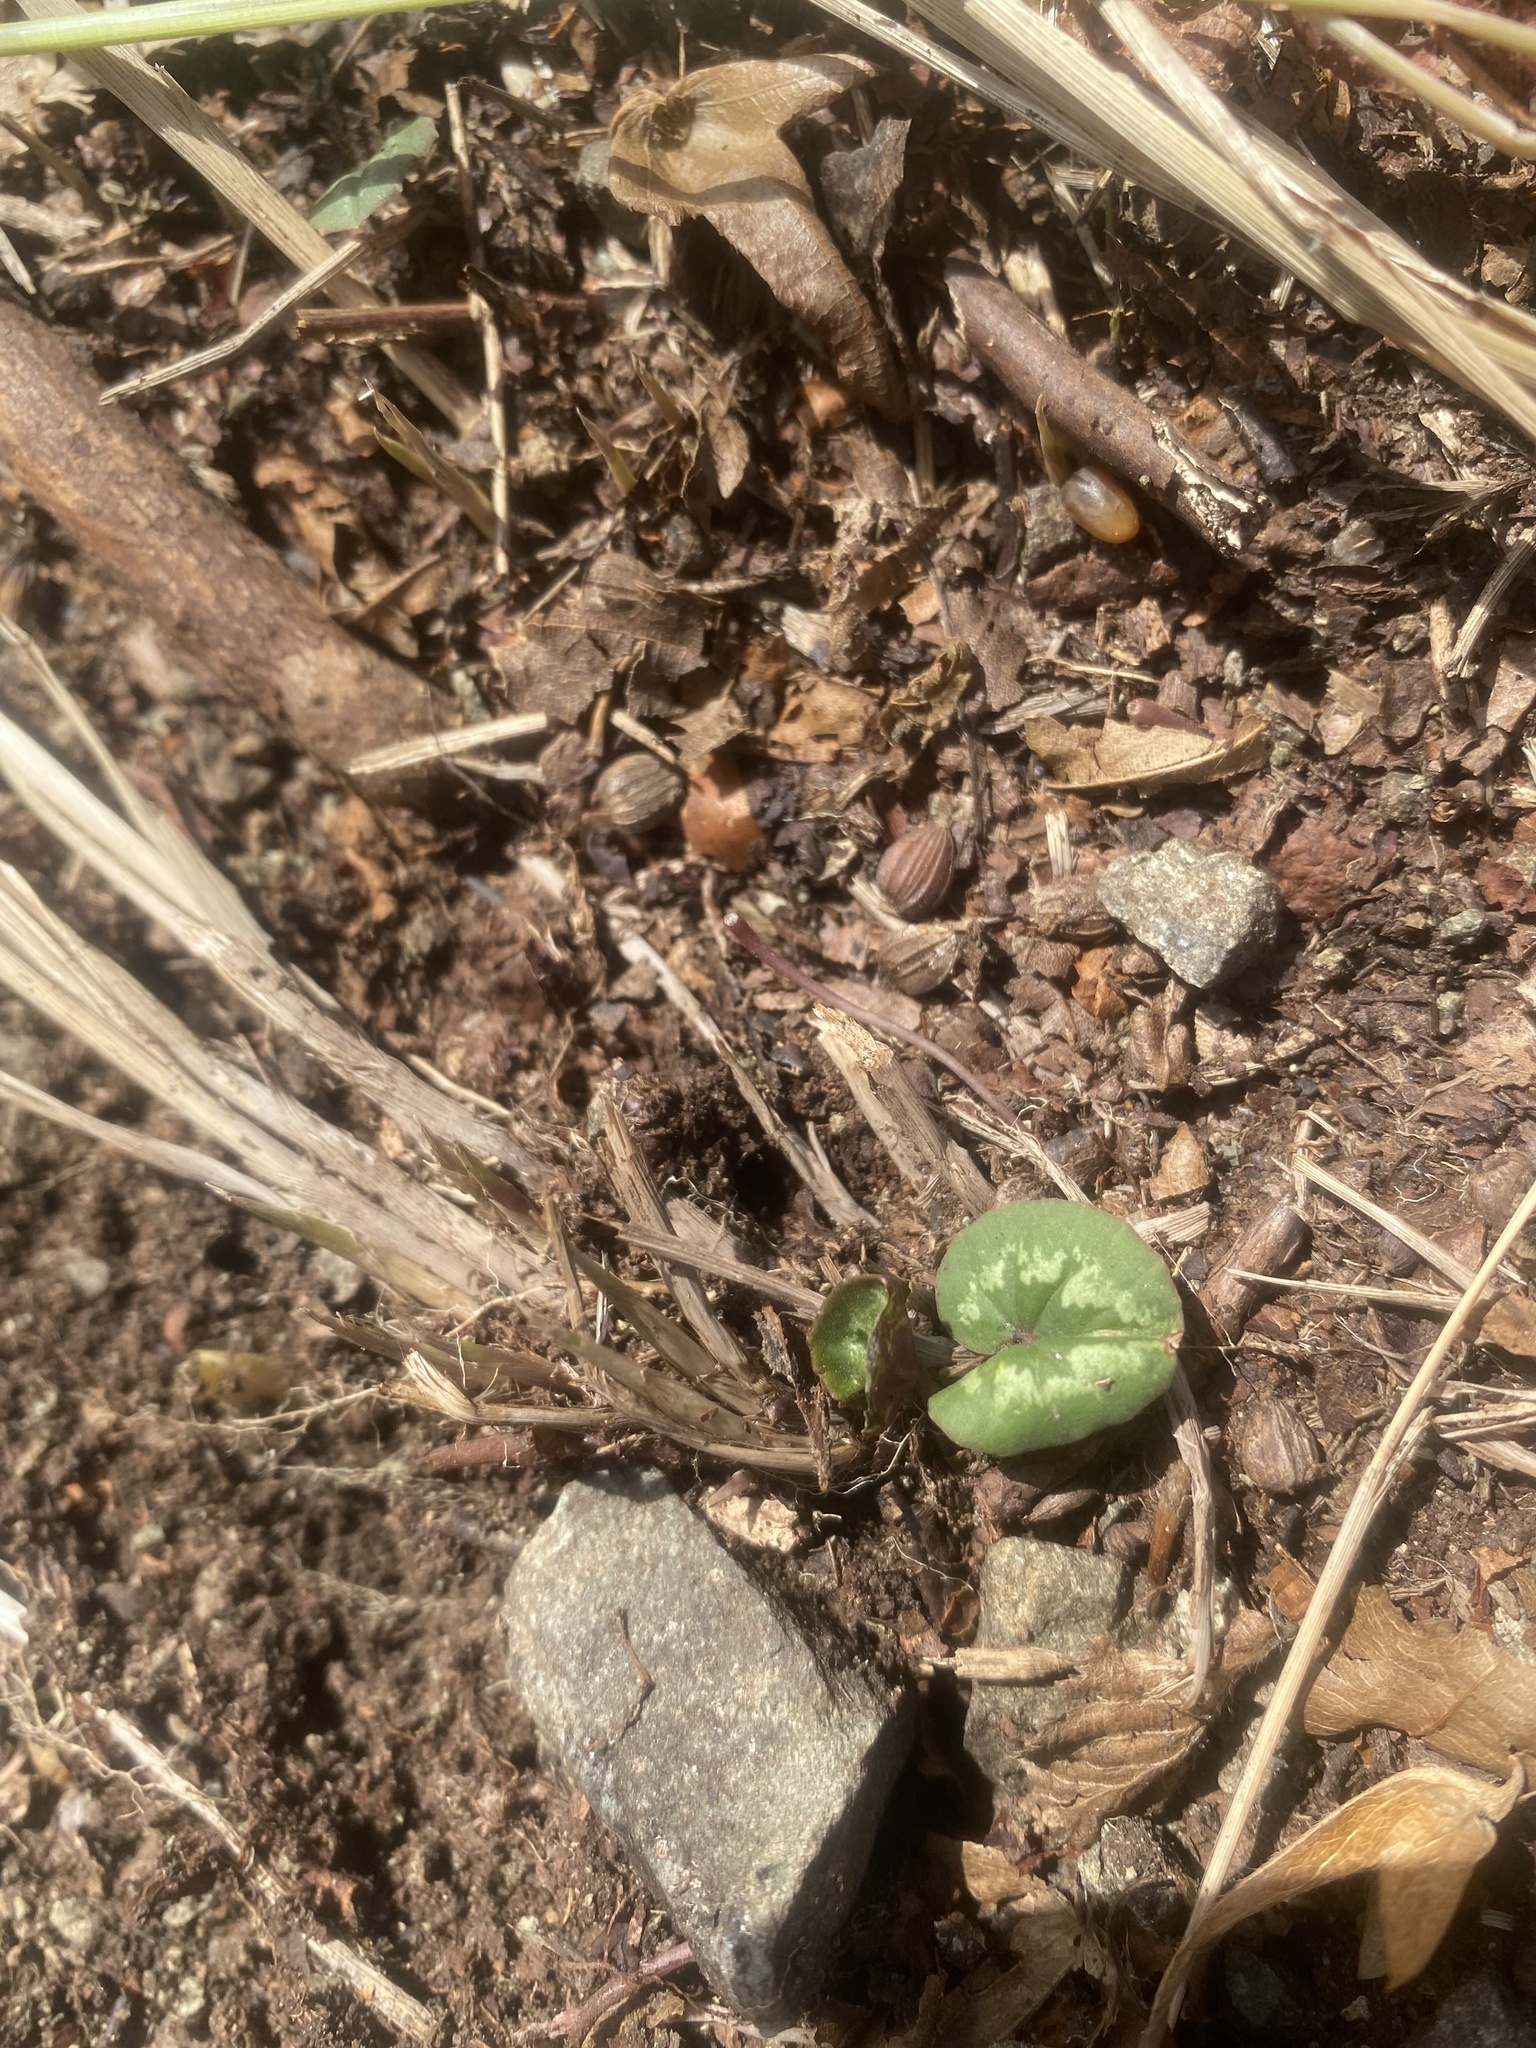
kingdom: Plantae
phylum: Tracheophyta
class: Magnoliopsida
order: Ericales
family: Primulaceae
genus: Cyclamen
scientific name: Cyclamen coum
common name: Eastern sowbread
